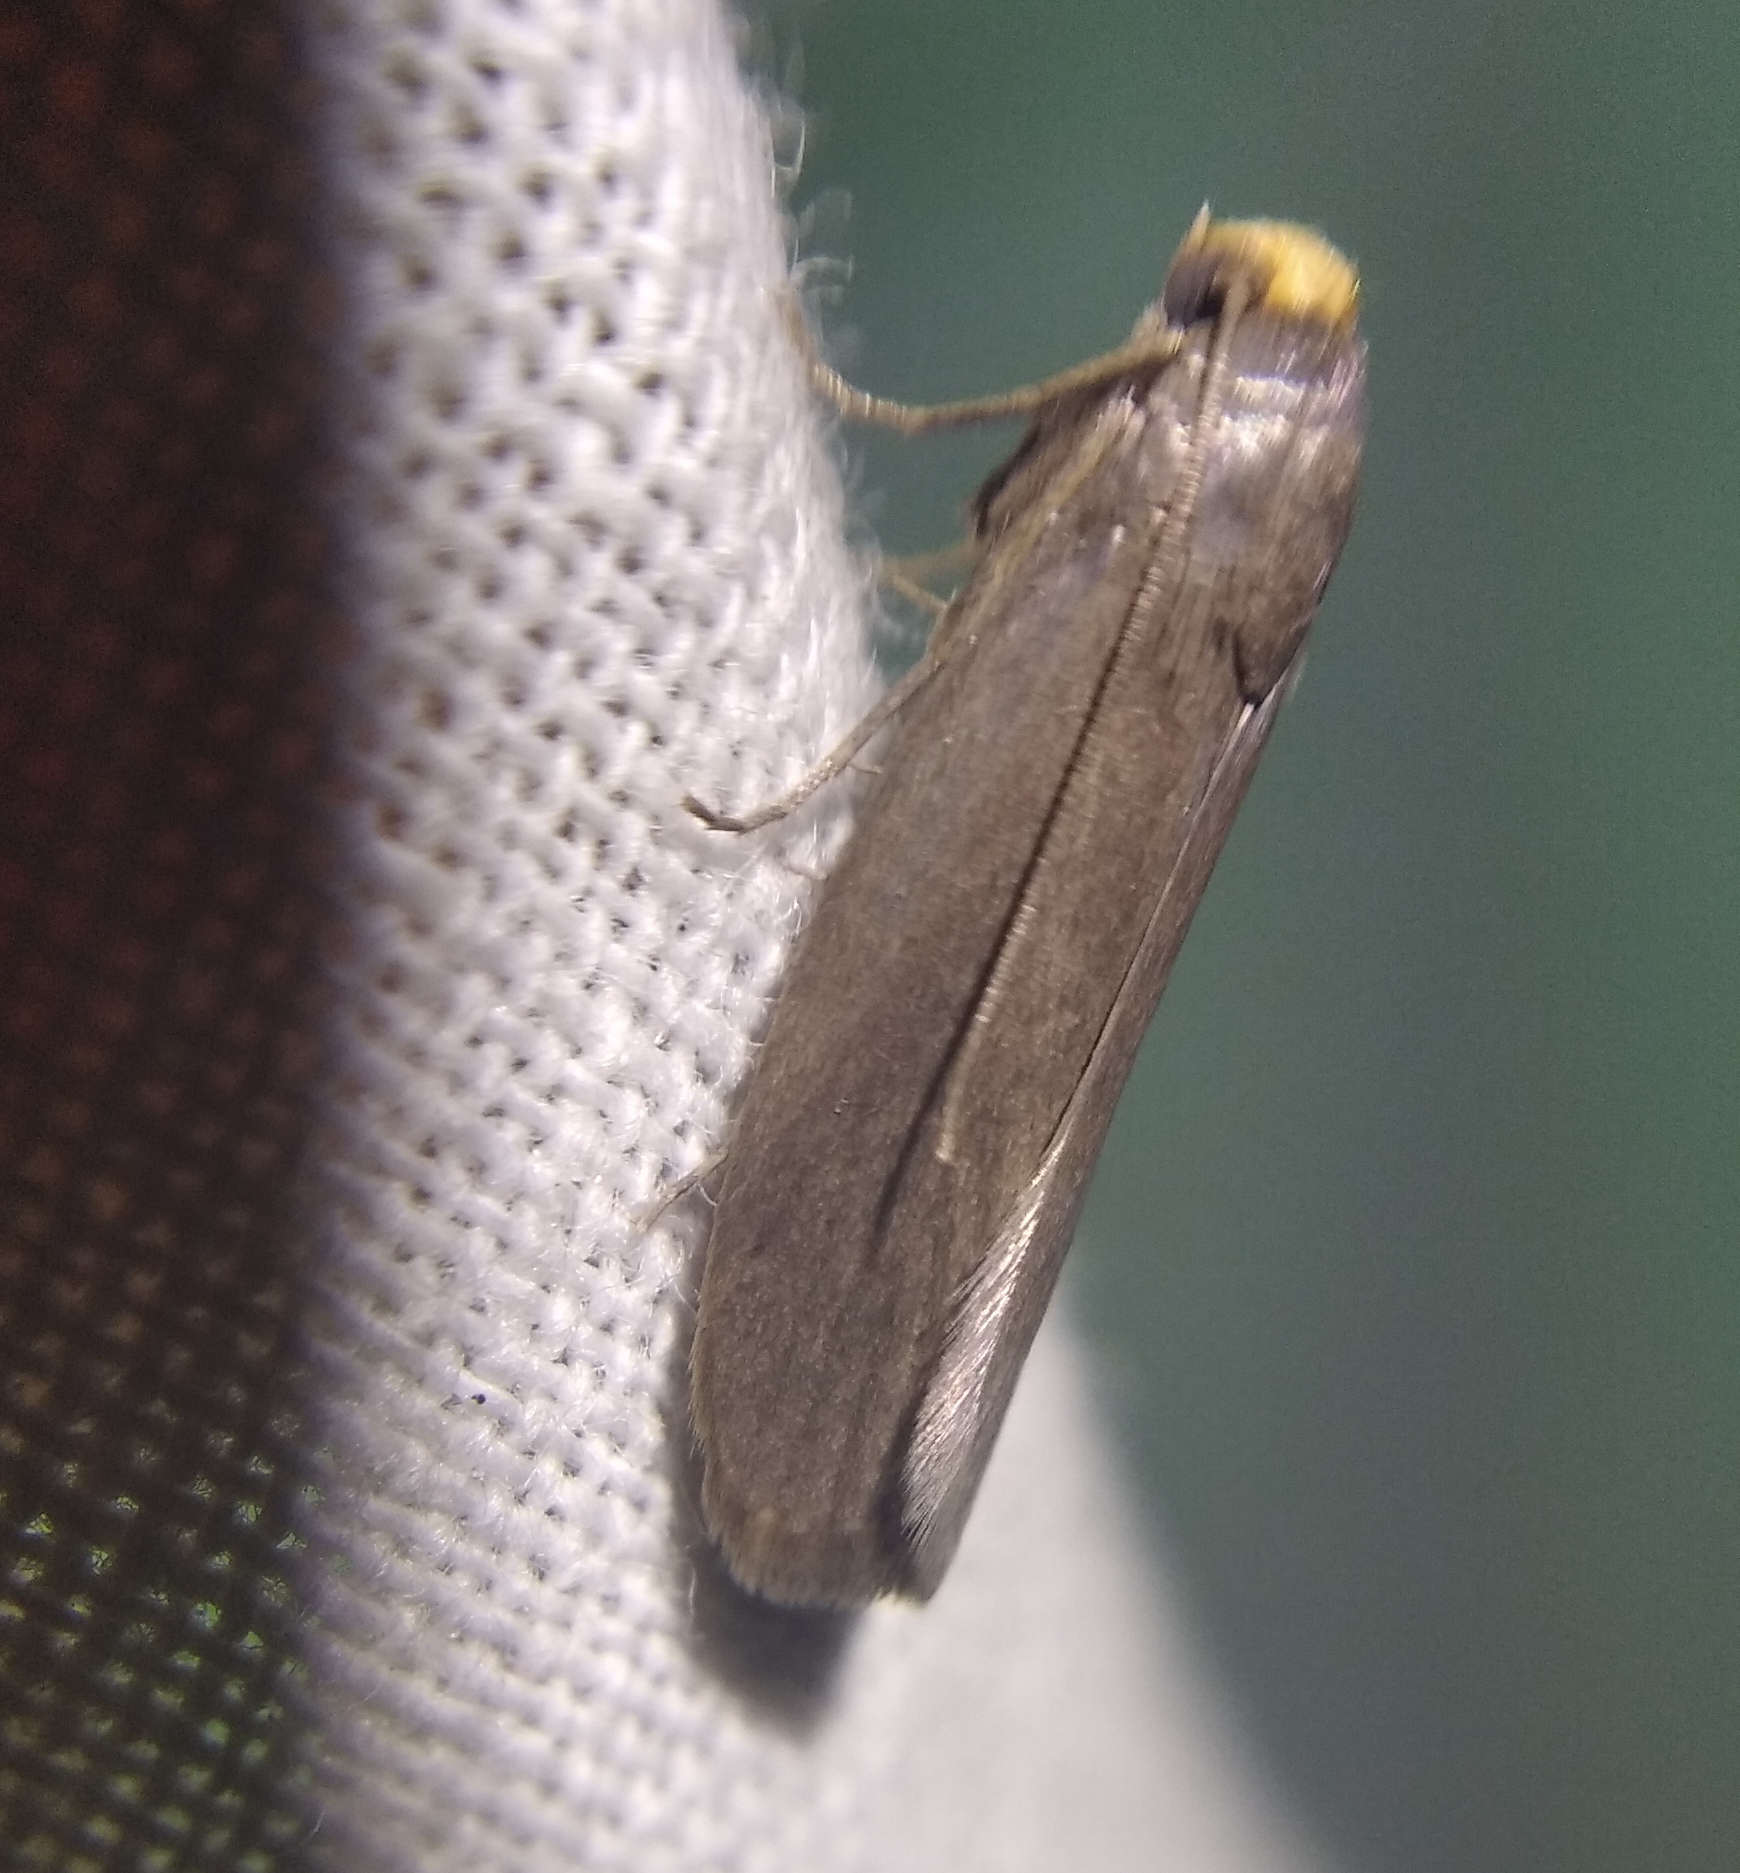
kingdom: Animalia
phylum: Arthropoda
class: Insecta
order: Lepidoptera
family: Pyralidae
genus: Achroia
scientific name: Achroia grisella
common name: Lesser wax moth
